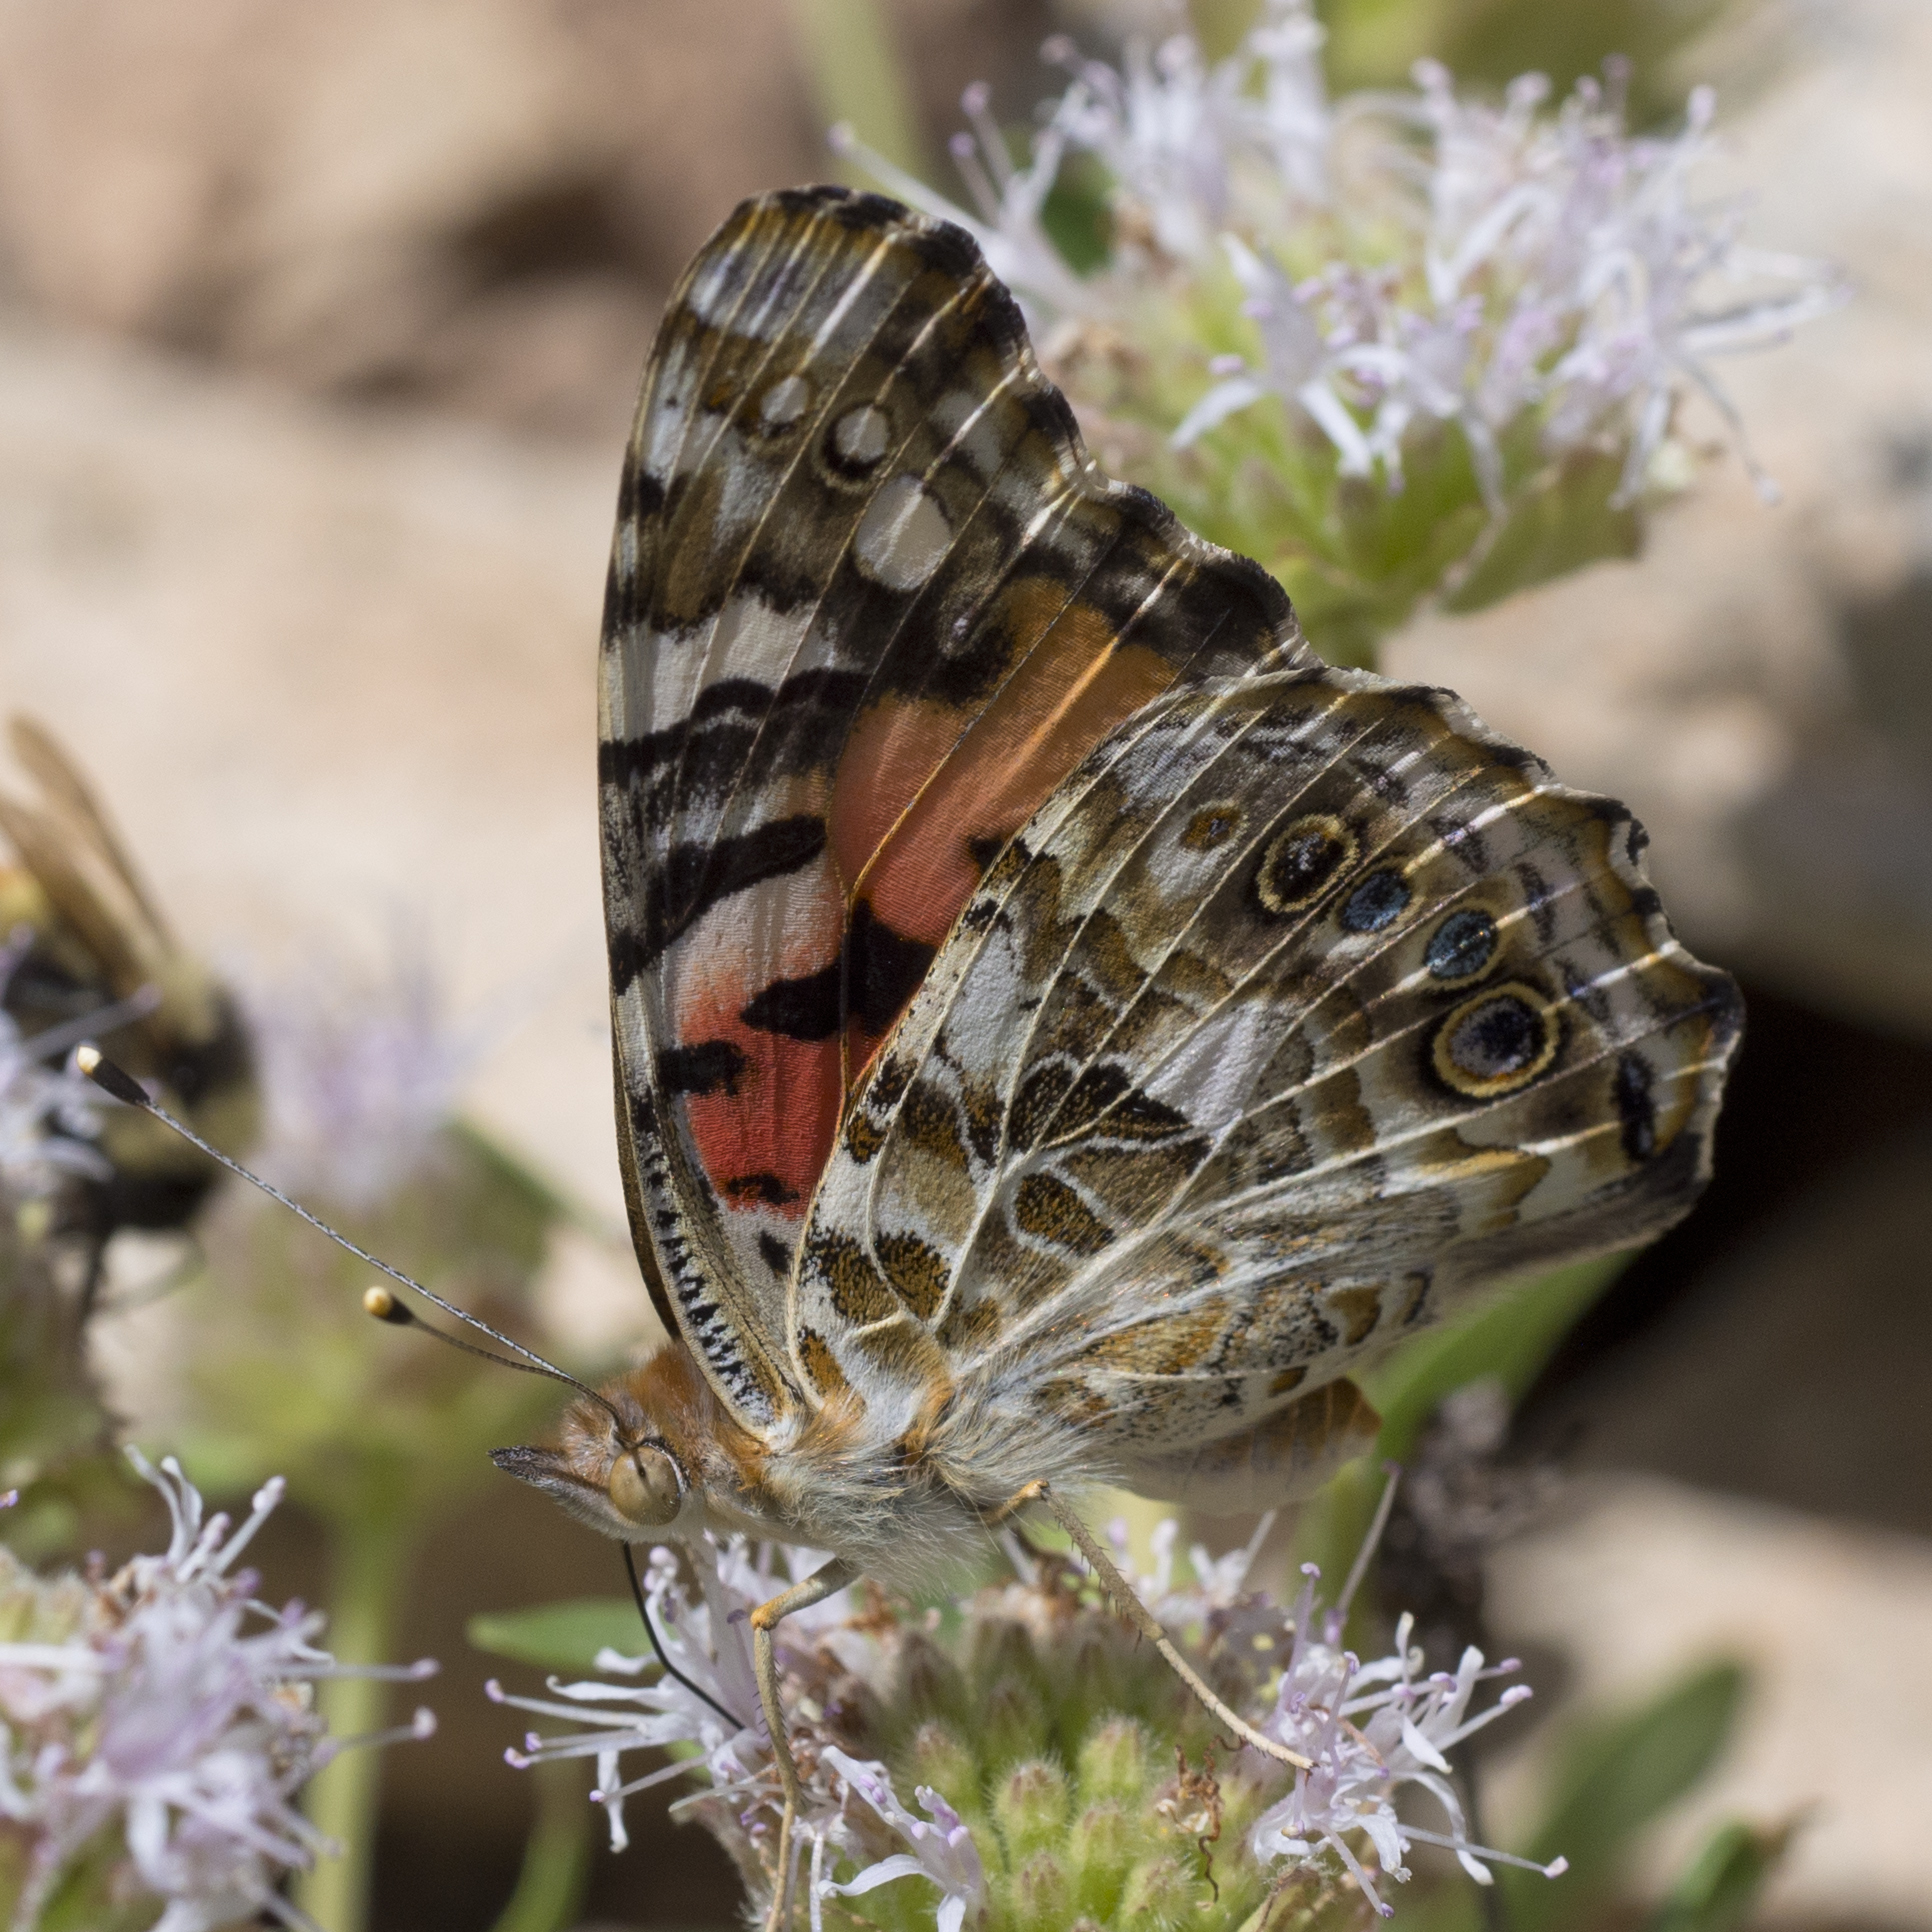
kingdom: Animalia
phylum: Arthropoda
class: Insecta
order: Lepidoptera
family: Nymphalidae
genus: Vanessa
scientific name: Vanessa cardui
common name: Painted lady
